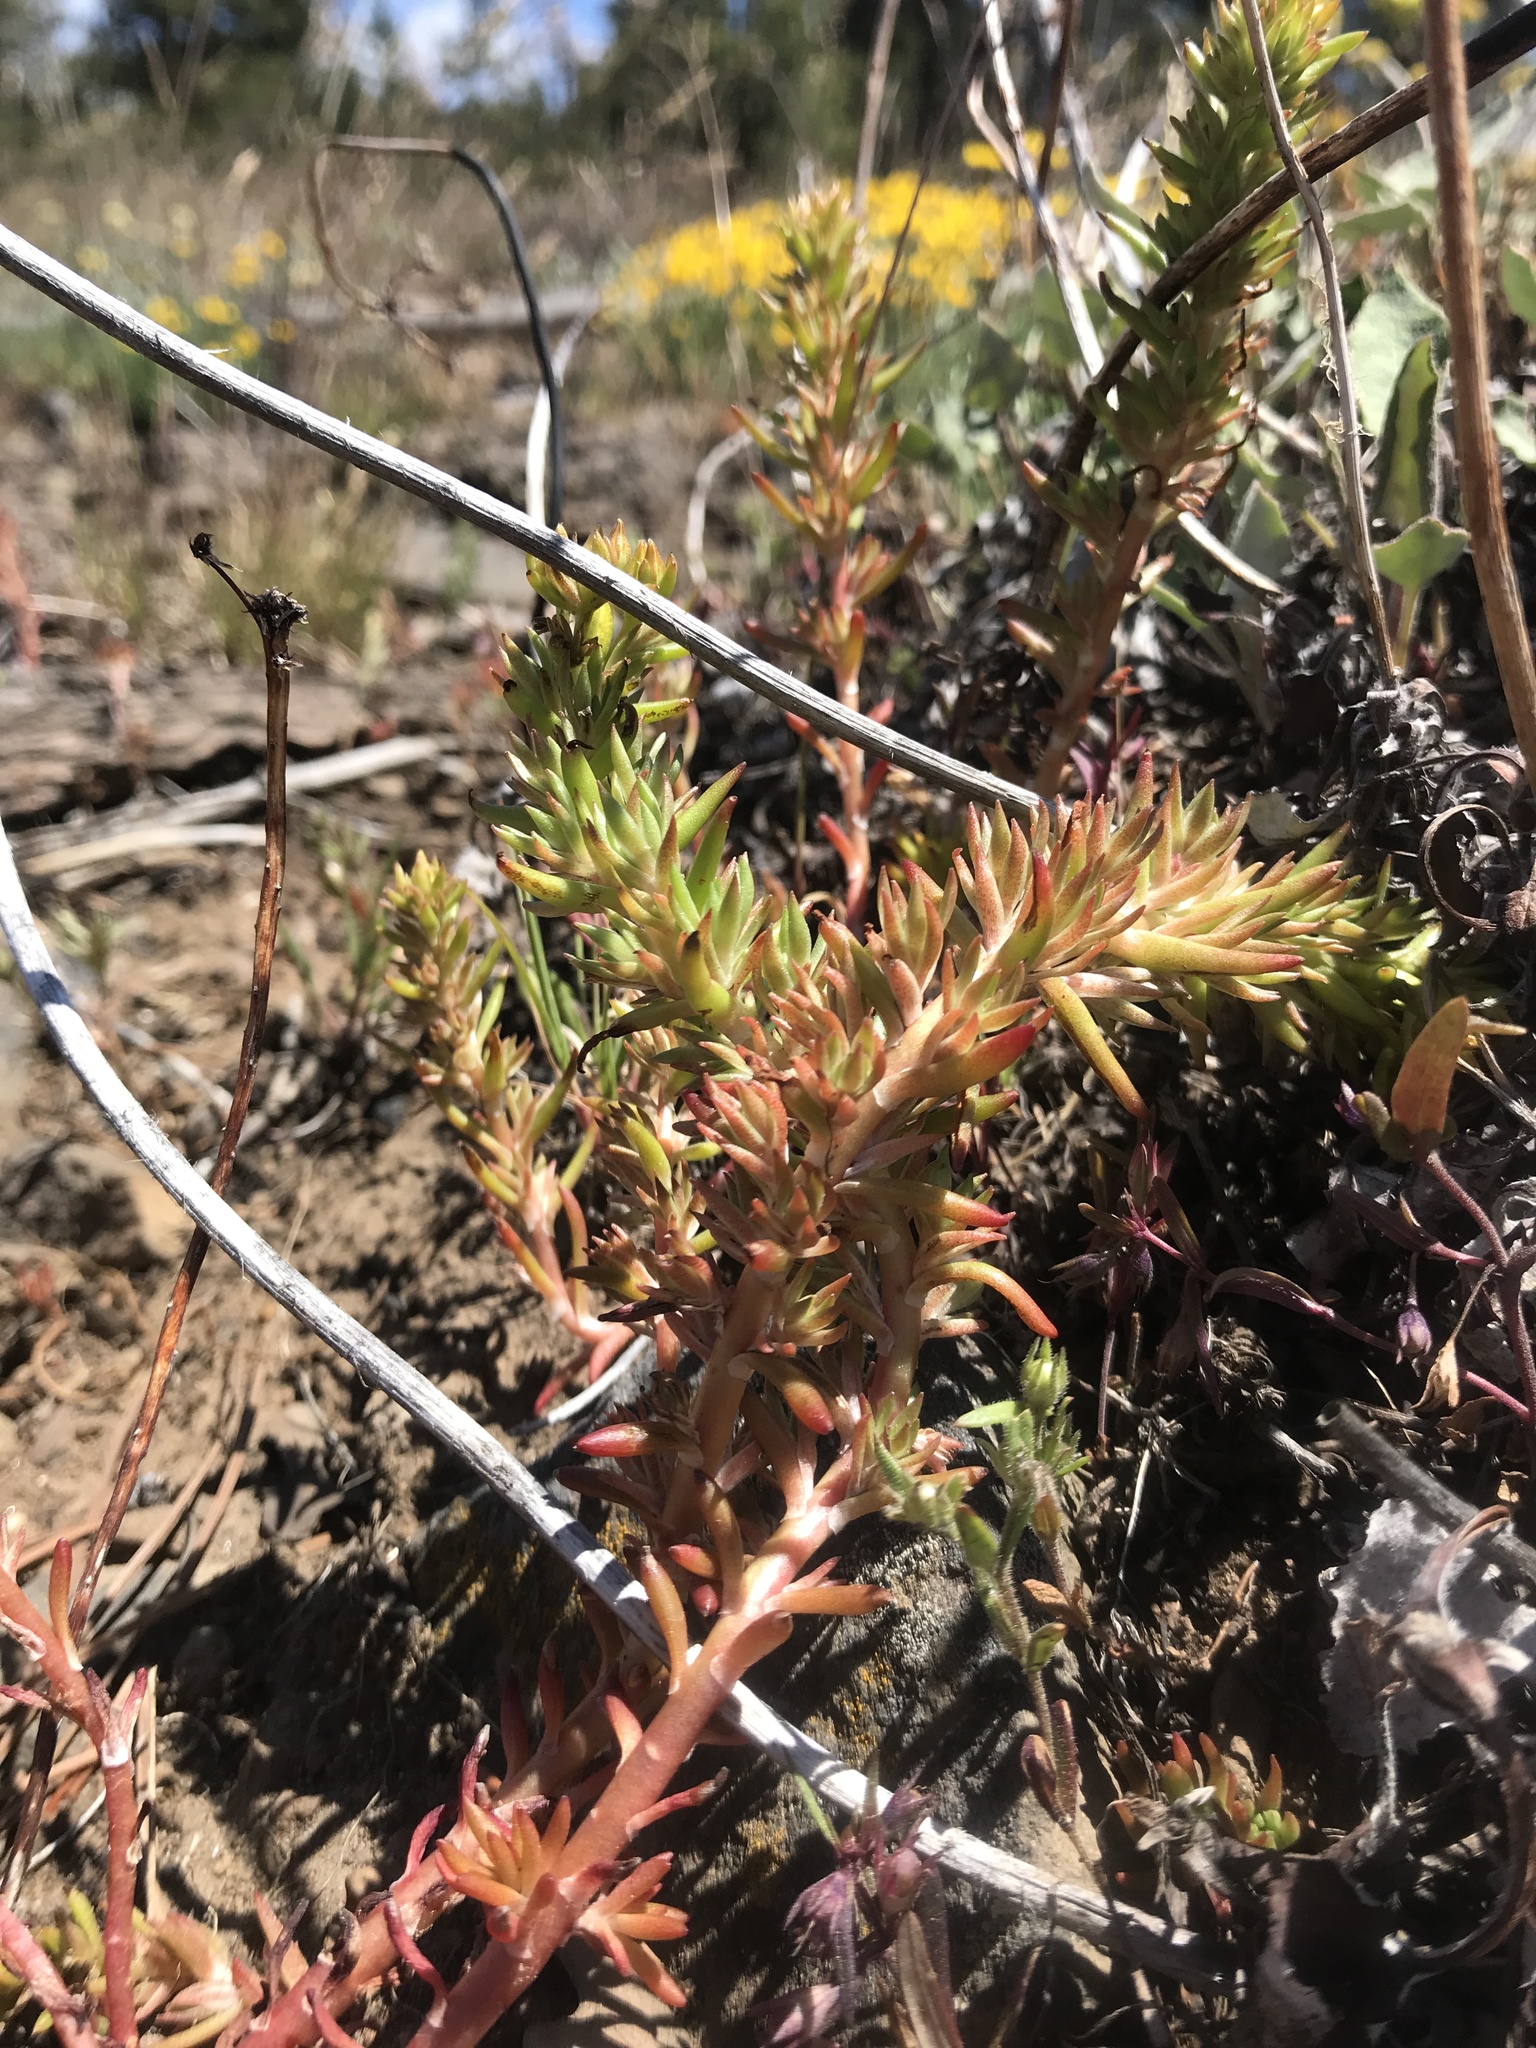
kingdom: Plantae
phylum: Tracheophyta
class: Magnoliopsida
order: Saxifragales
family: Crassulaceae
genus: Sedum
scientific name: Sedum stenopetalum
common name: Narrow-petaled stonecrop
